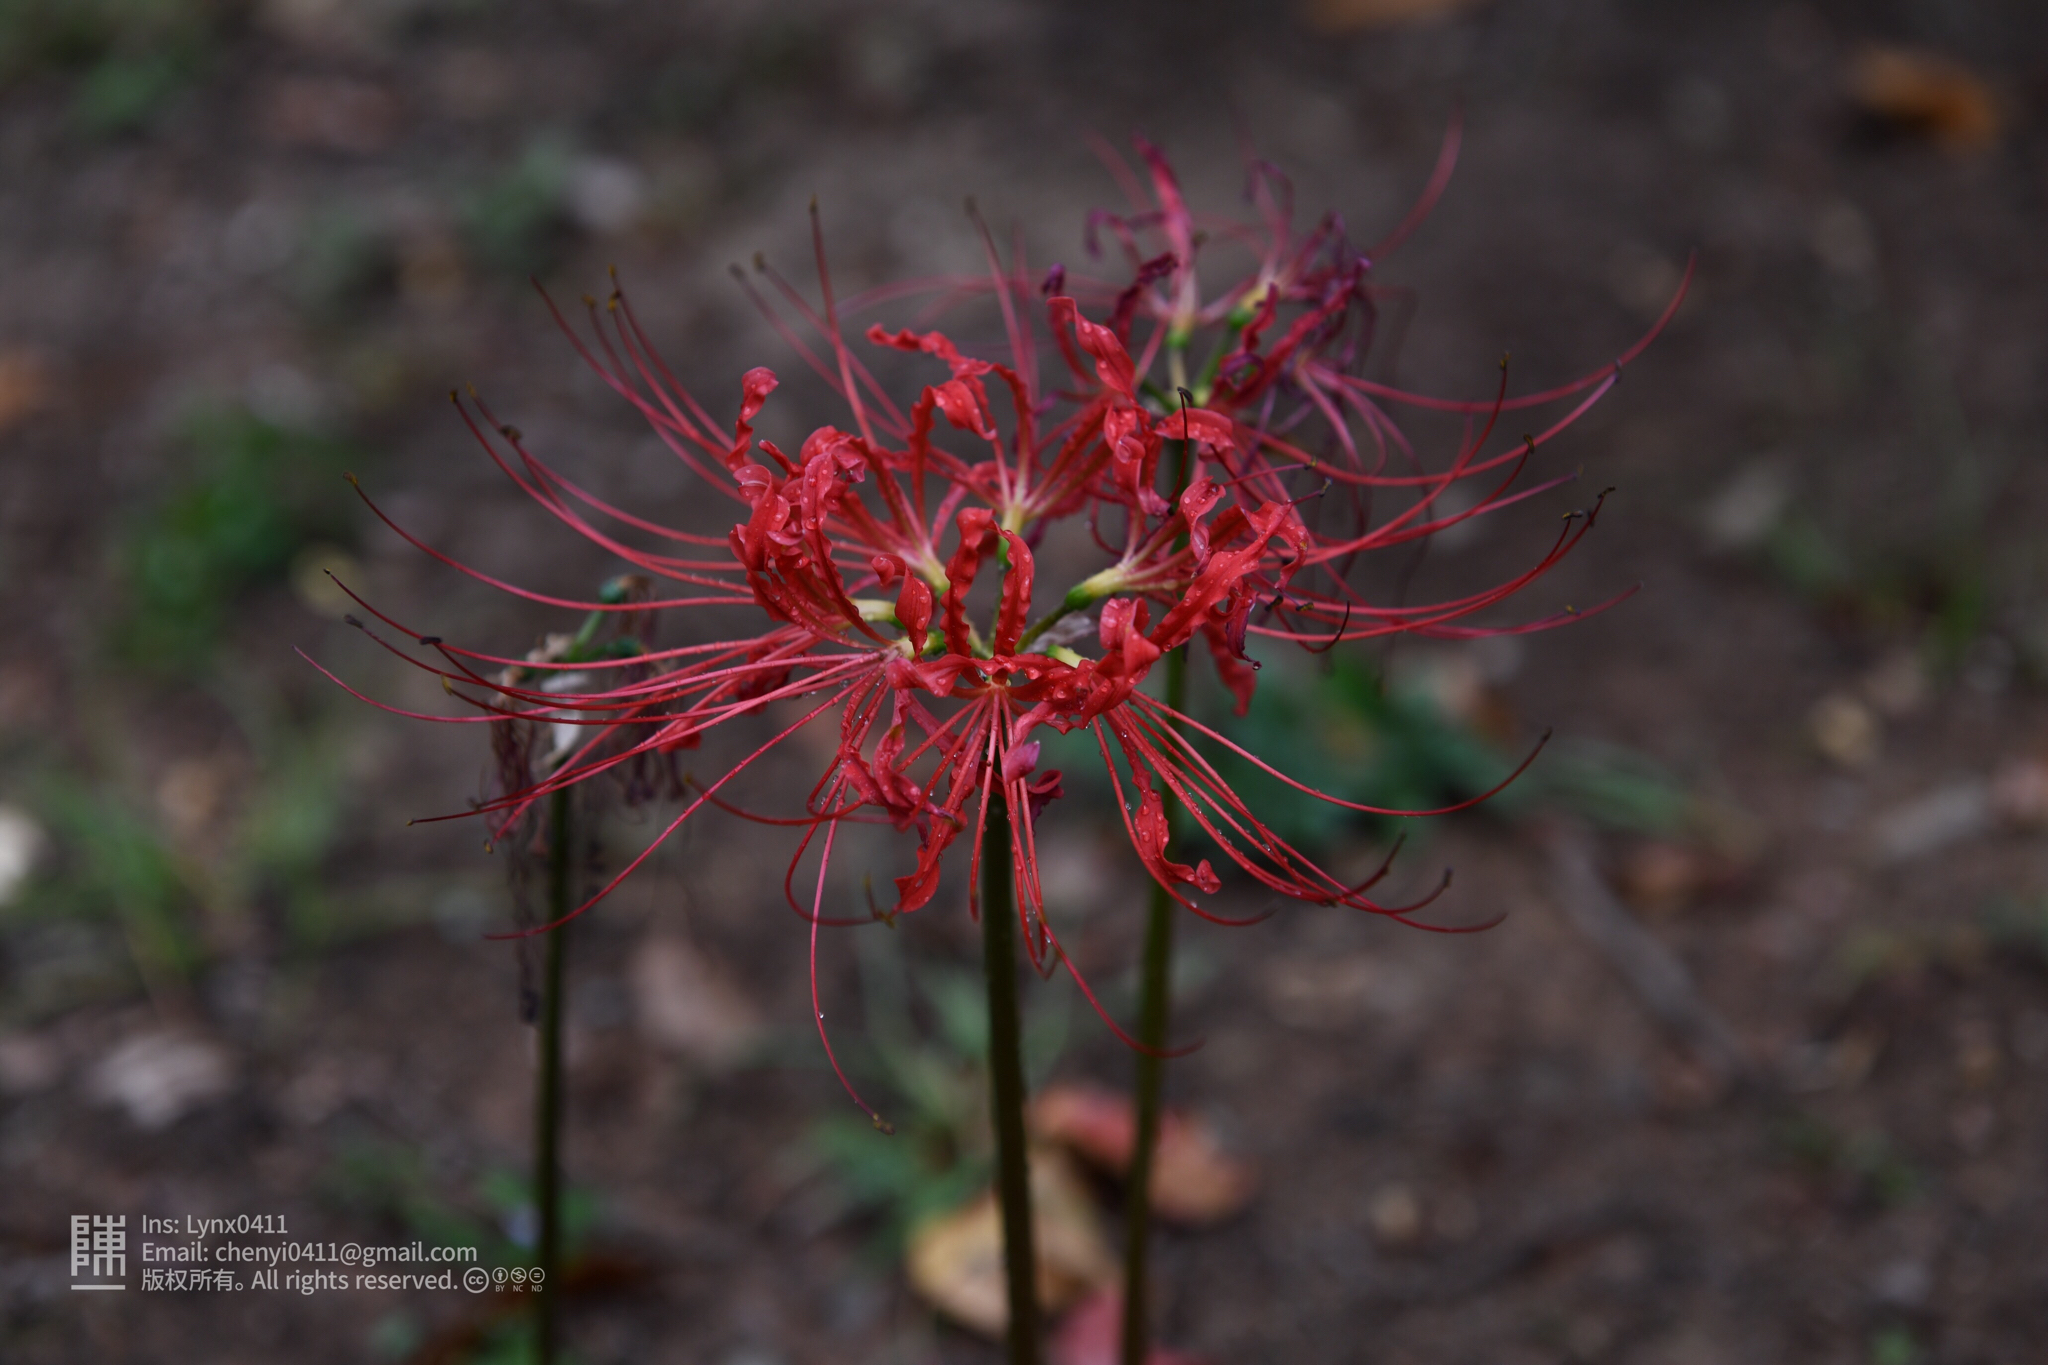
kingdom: Plantae
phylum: Tracheophyta
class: Liliopsida
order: Asparagales
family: Amaryllidaceae
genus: Lycoris
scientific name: Lycoris radiata
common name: Red spider lily
